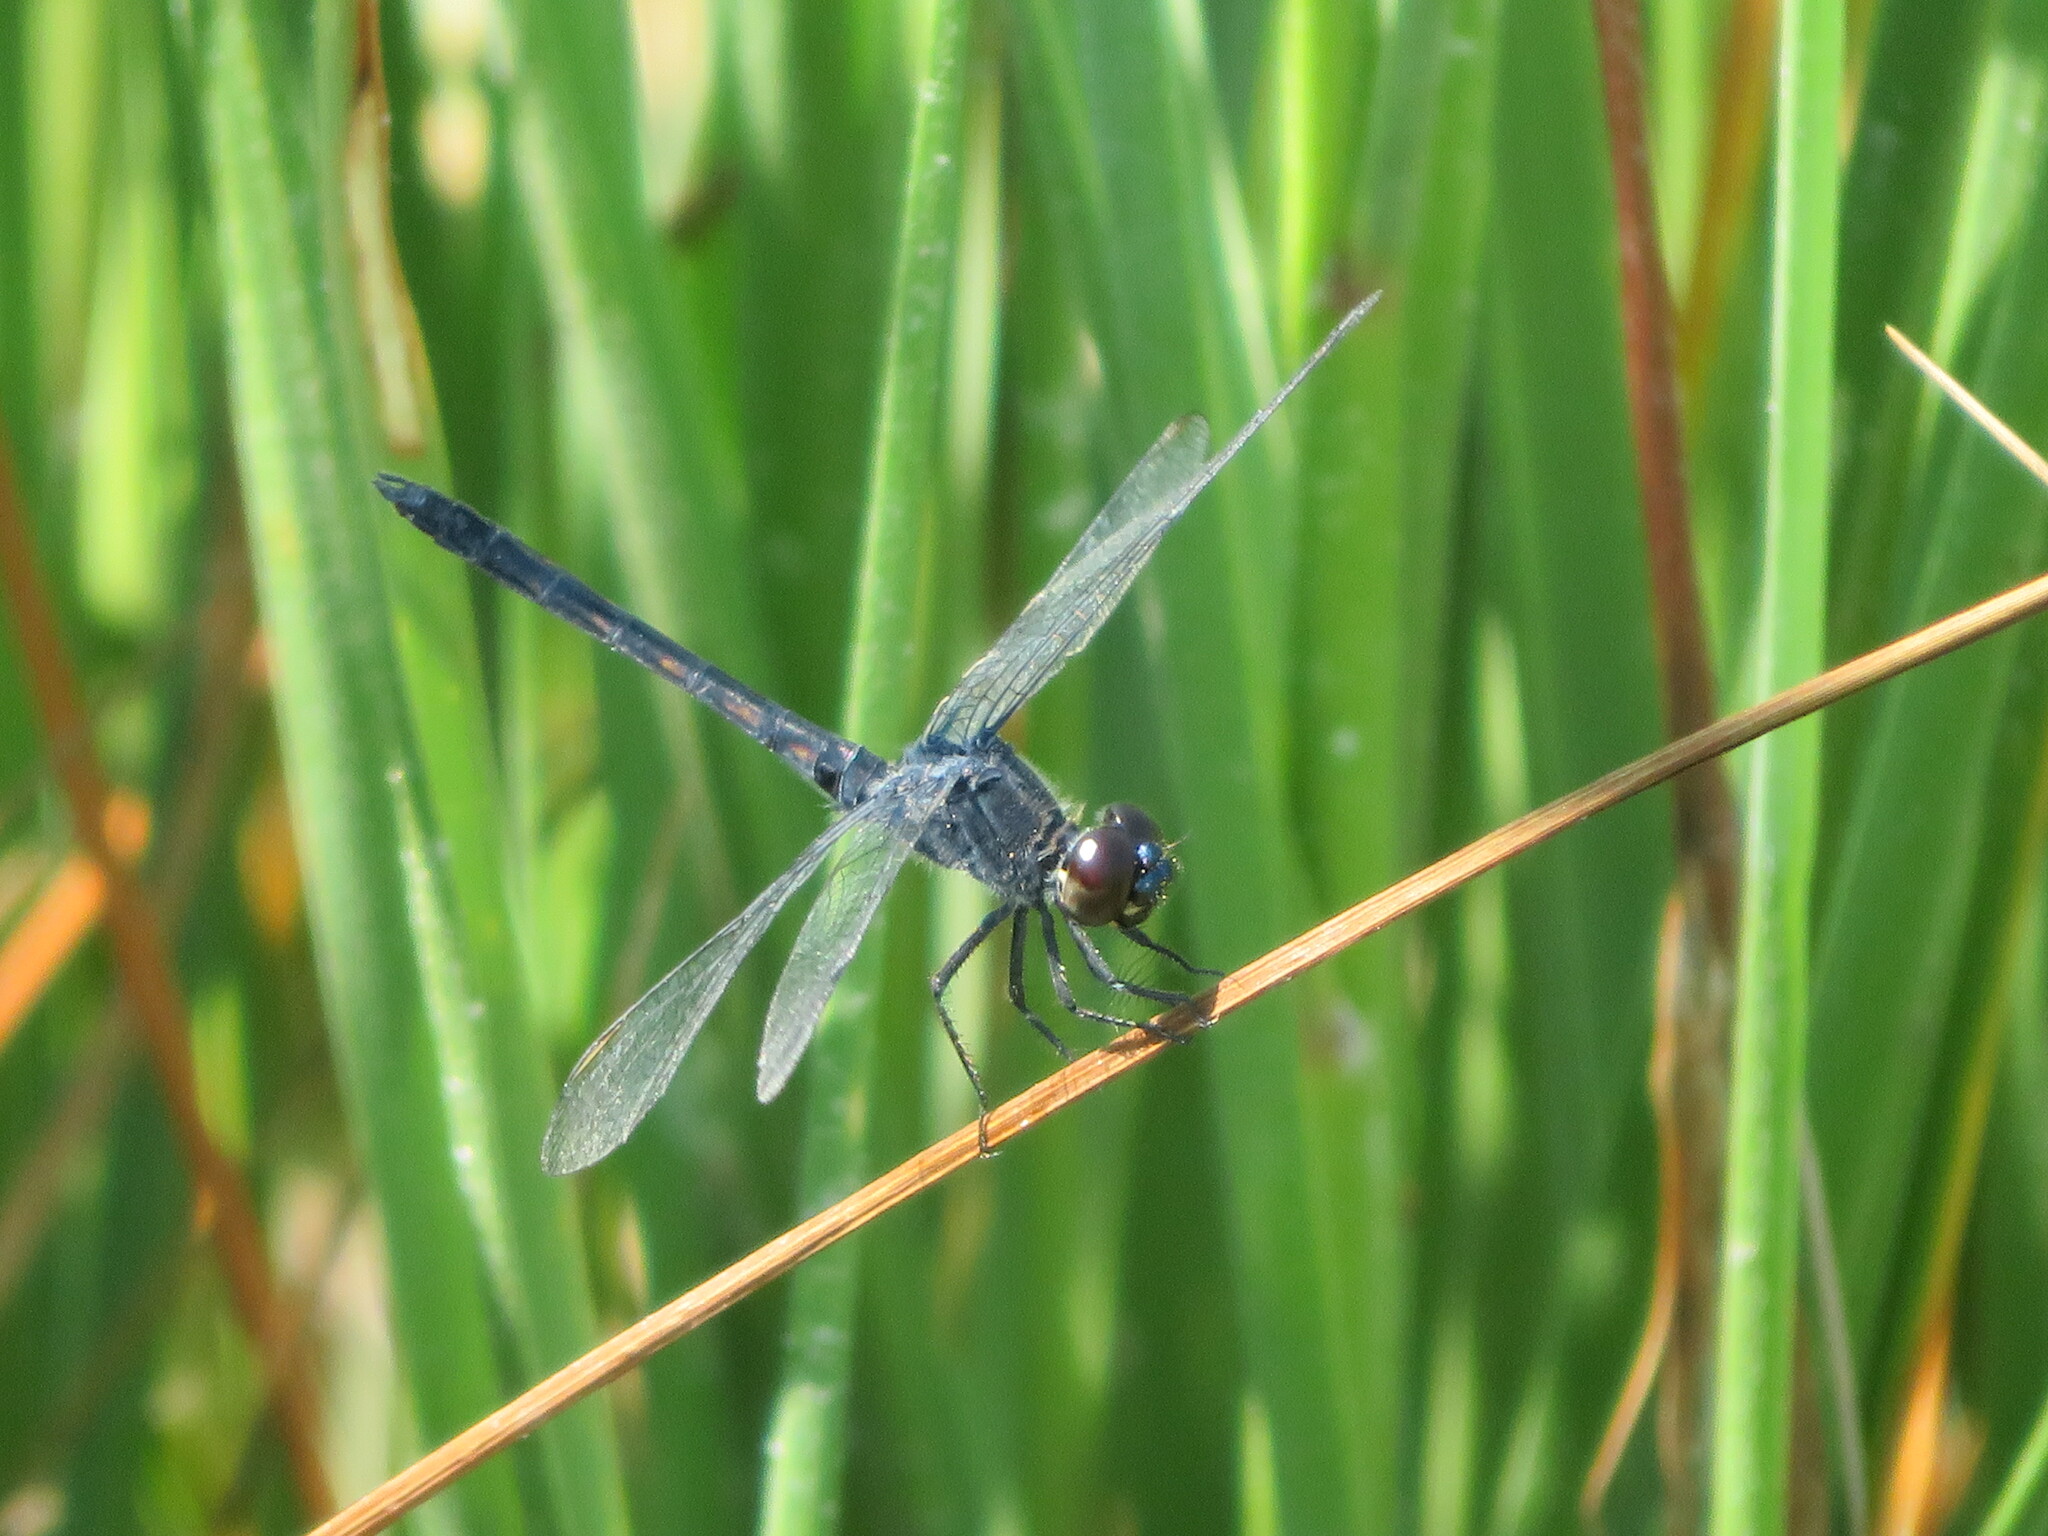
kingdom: Animalia
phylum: Arthropoda
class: Insecta
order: Odonata
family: Libellulidae
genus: Erythrodiplax
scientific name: Erythrodiplax berenice
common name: Seaside dragonlet
